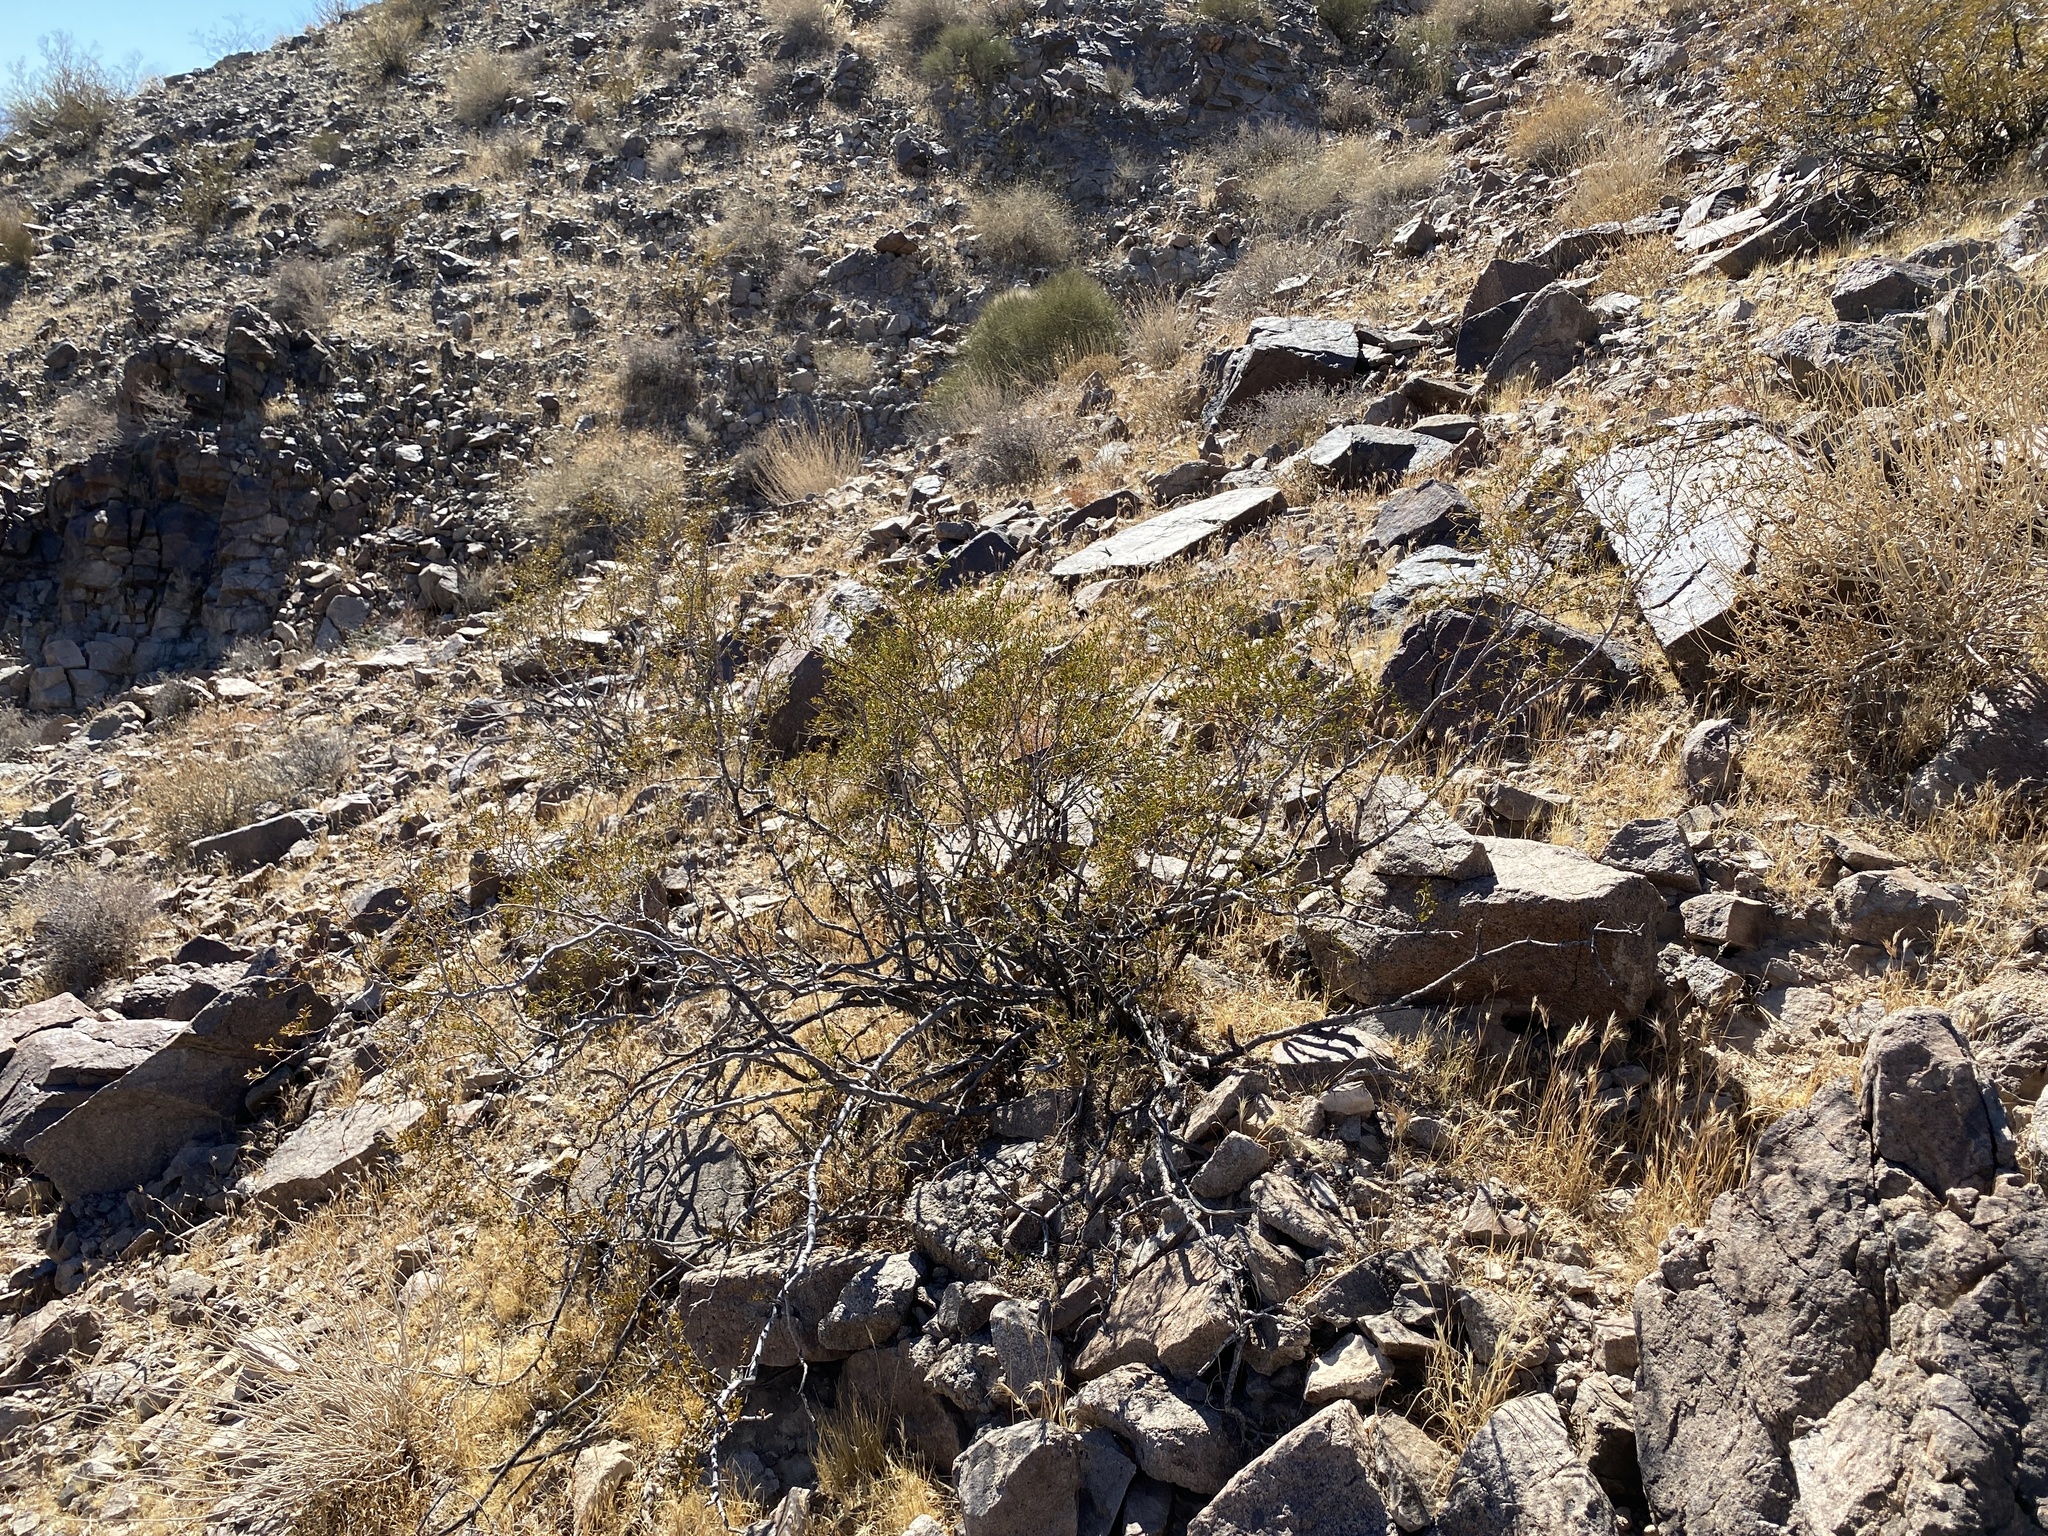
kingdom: Plantae
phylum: Tracheophyta
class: Magnoliopsida
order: Zygophyllales
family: Zygophyllaceae
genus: Larrea
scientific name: Larrea tridentata
